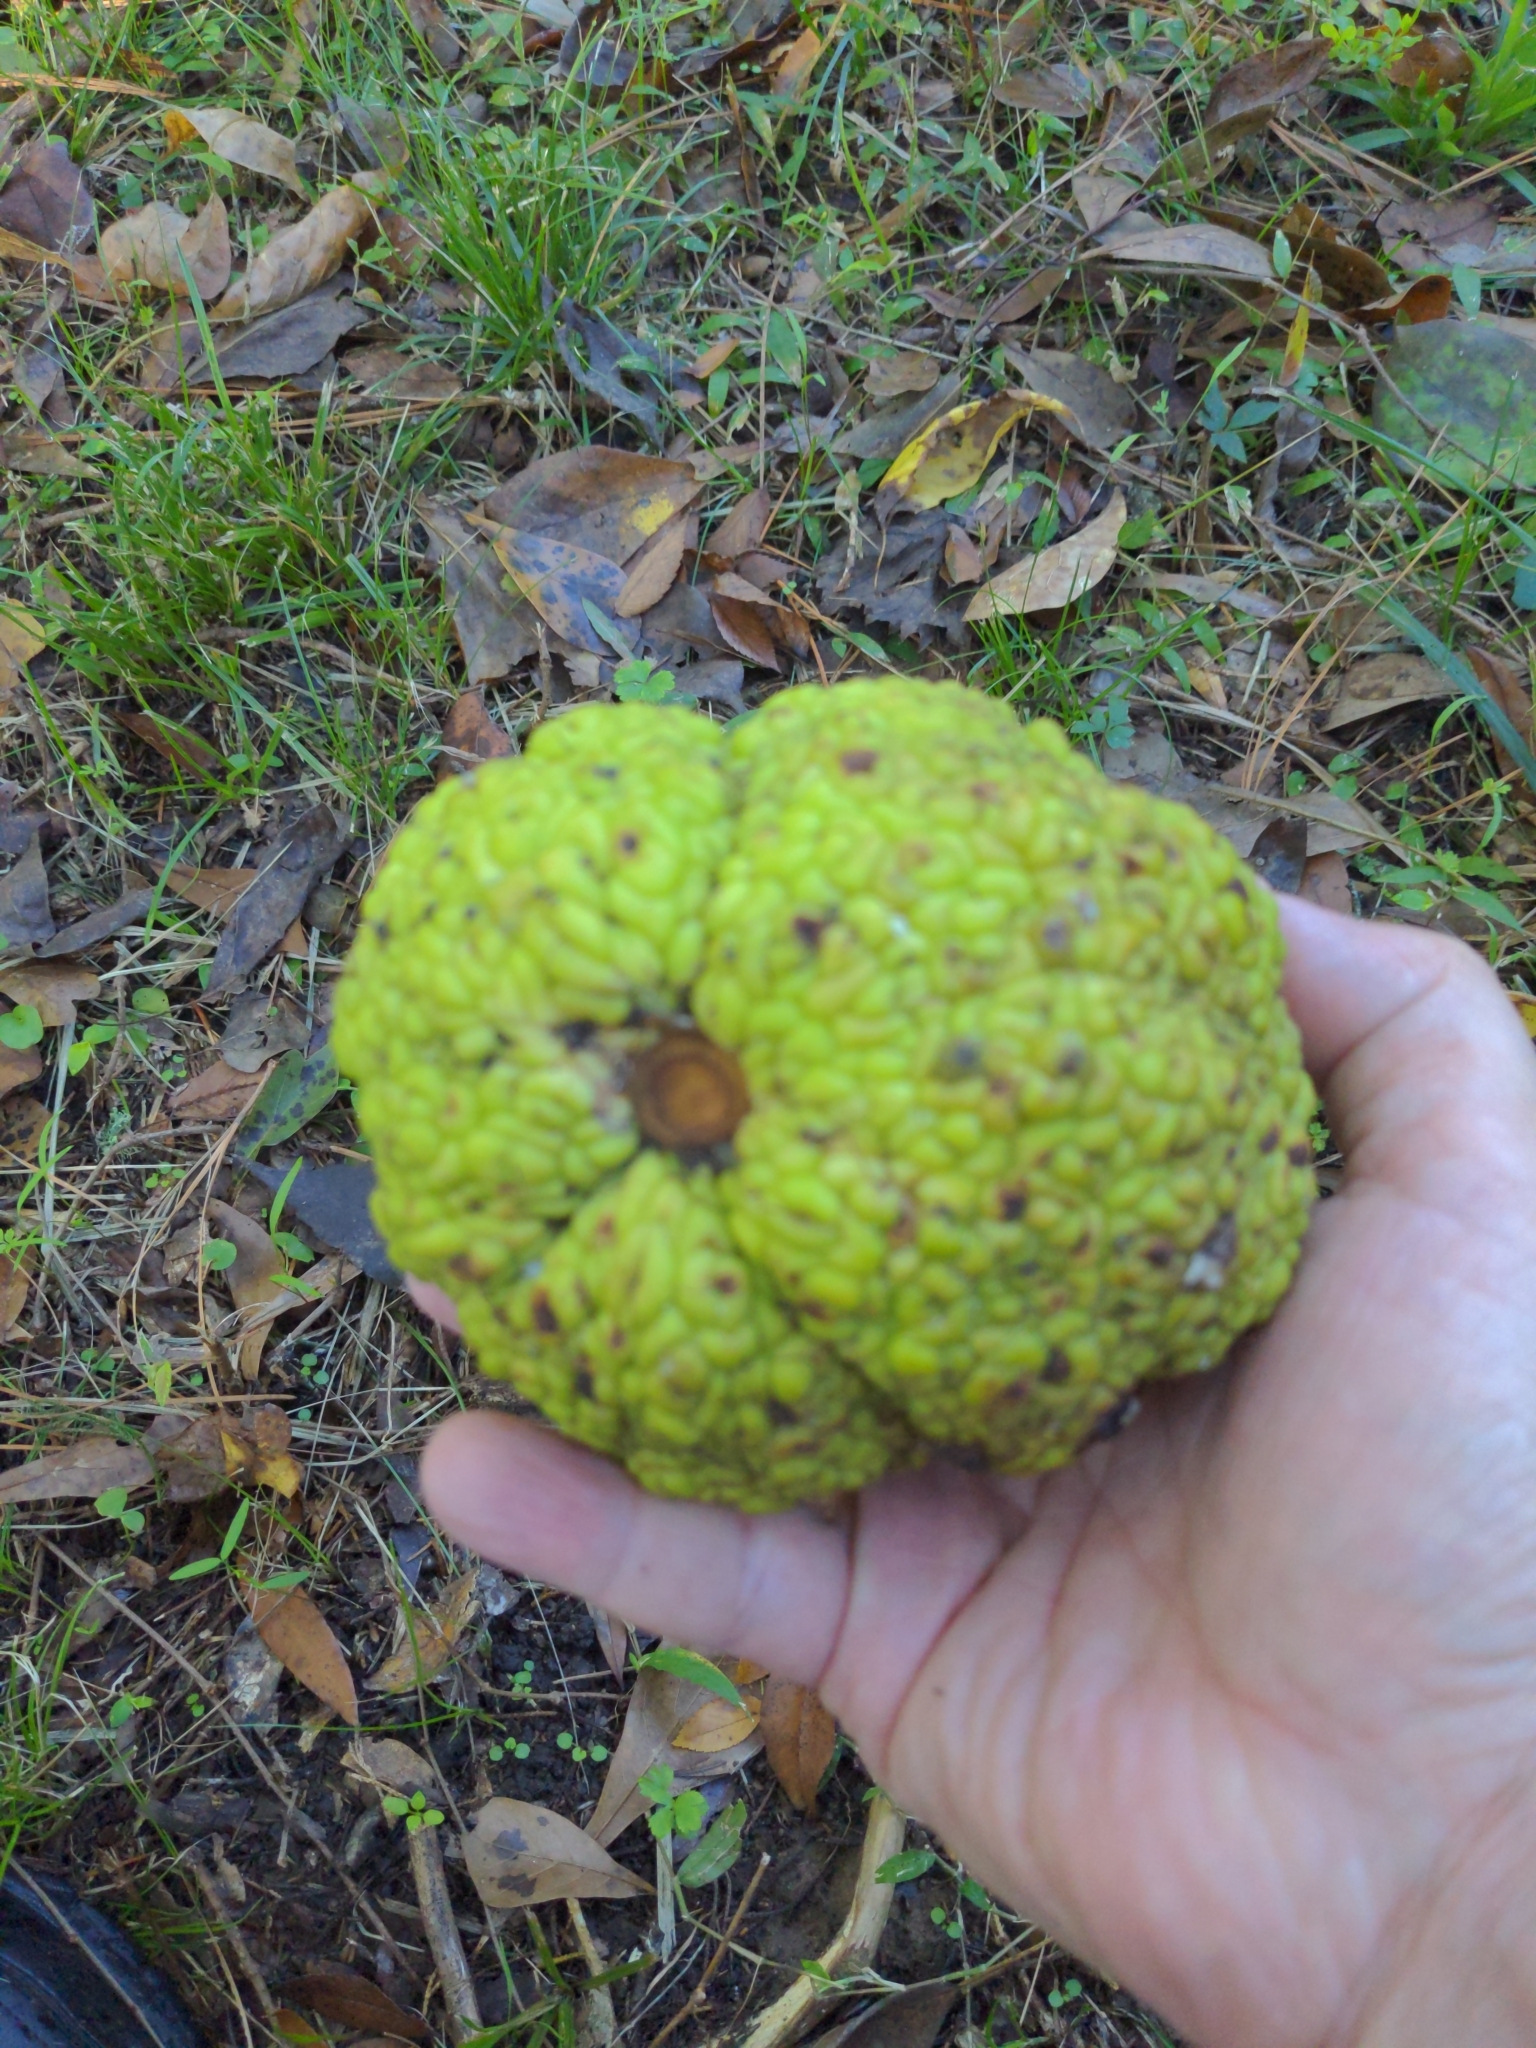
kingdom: Plantae
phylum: Tracheophyta
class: Magnoliopsida
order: Rosales
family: Moraceae
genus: Maclura
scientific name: Maclura pomifera
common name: Osage-orange
